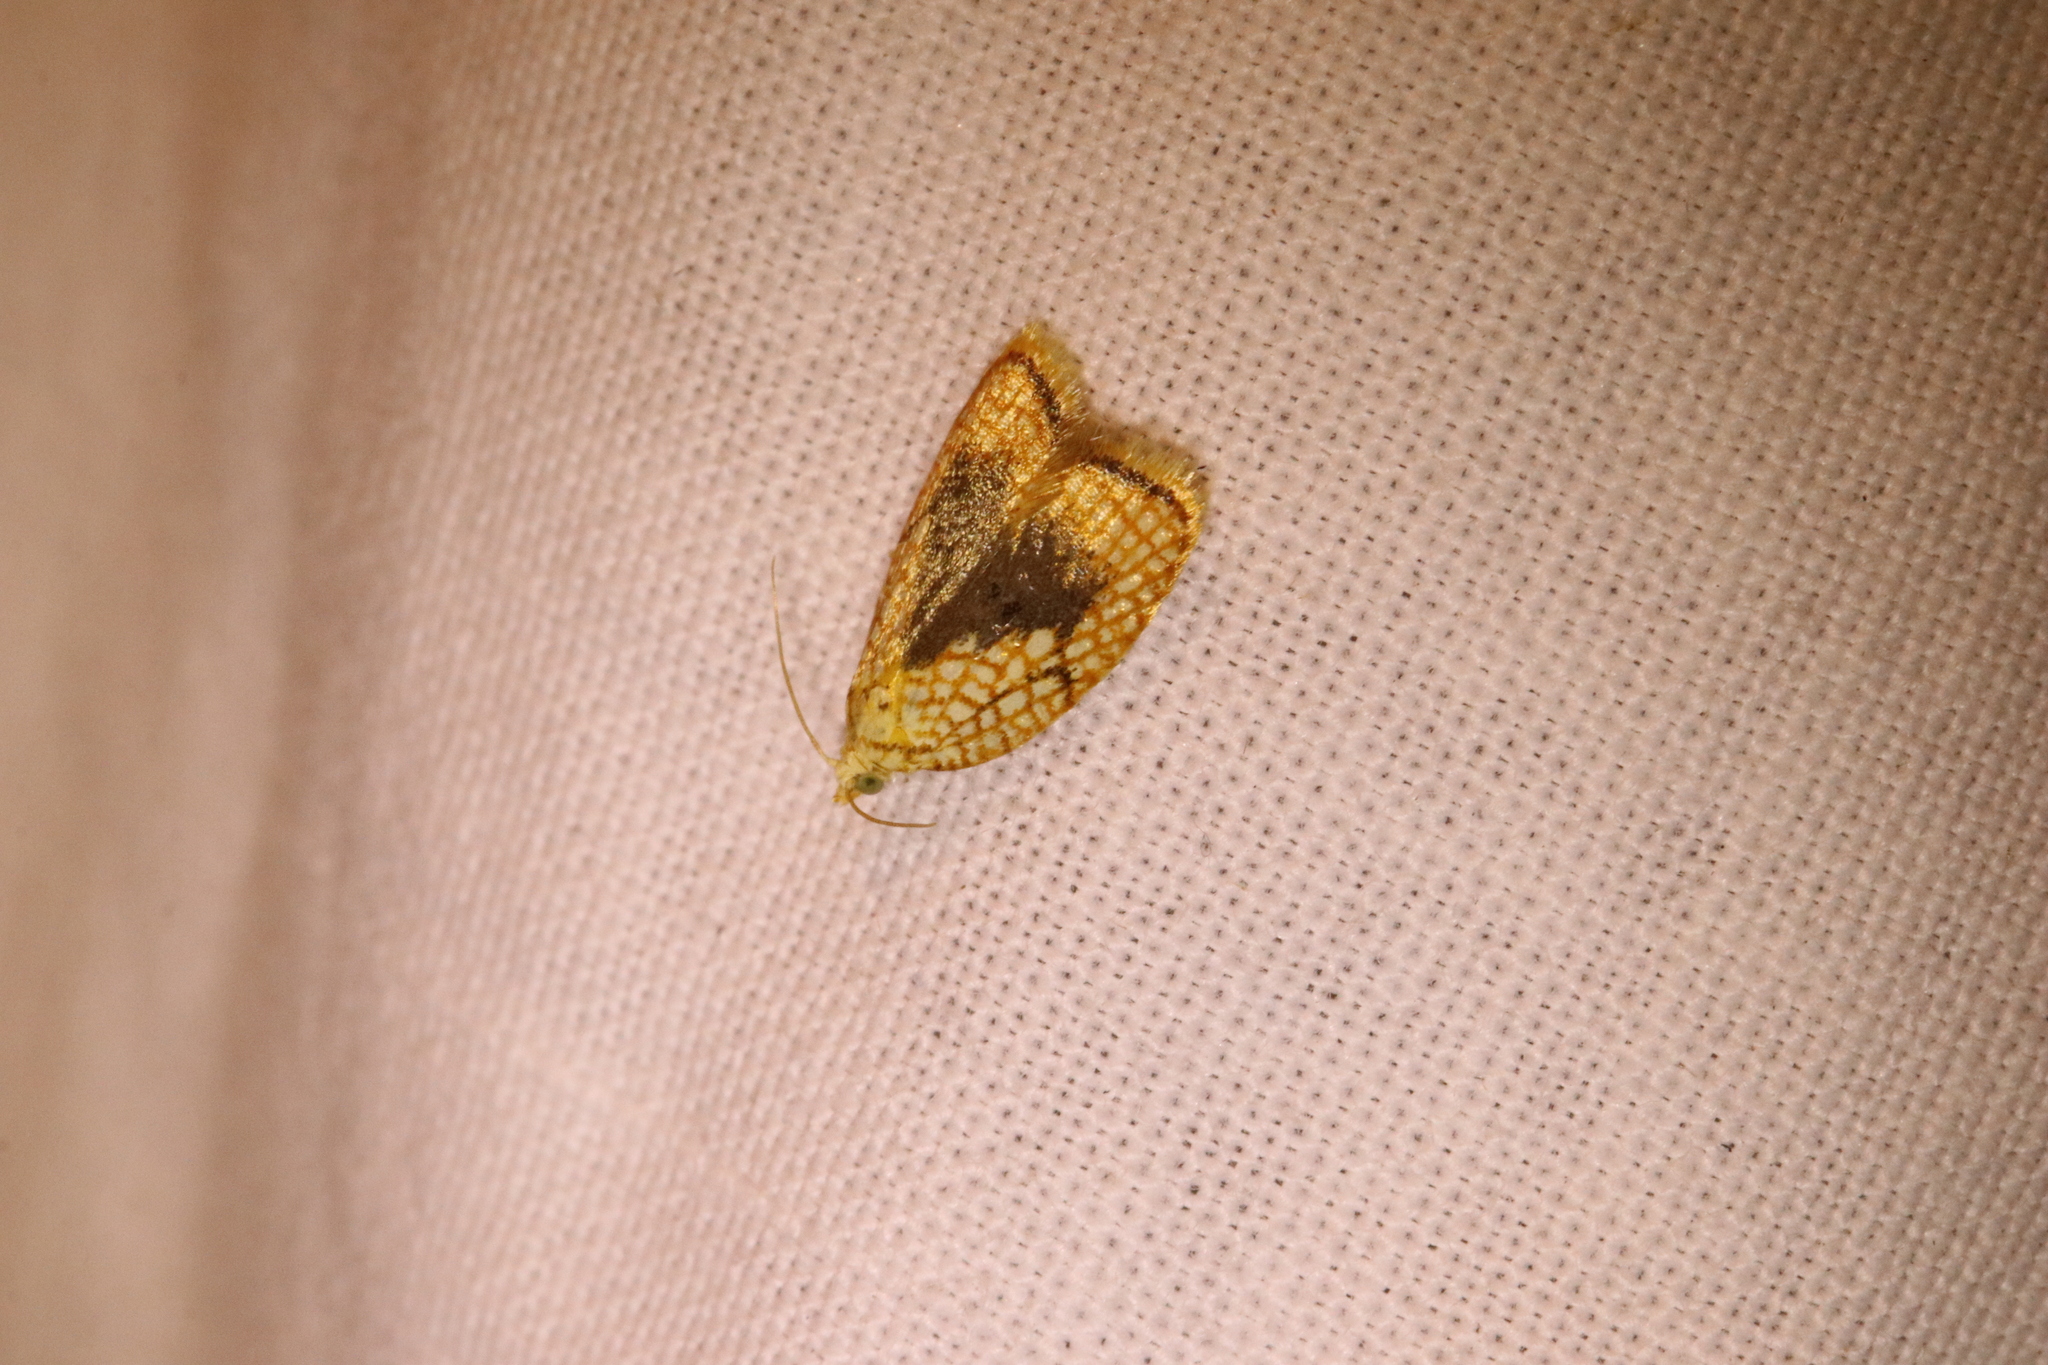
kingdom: Animalia
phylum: Arthropoda
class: Insecta
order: Lepidoptera
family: Tortricidae
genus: Acleris
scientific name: Acleris forsskaleana
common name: Maple button
